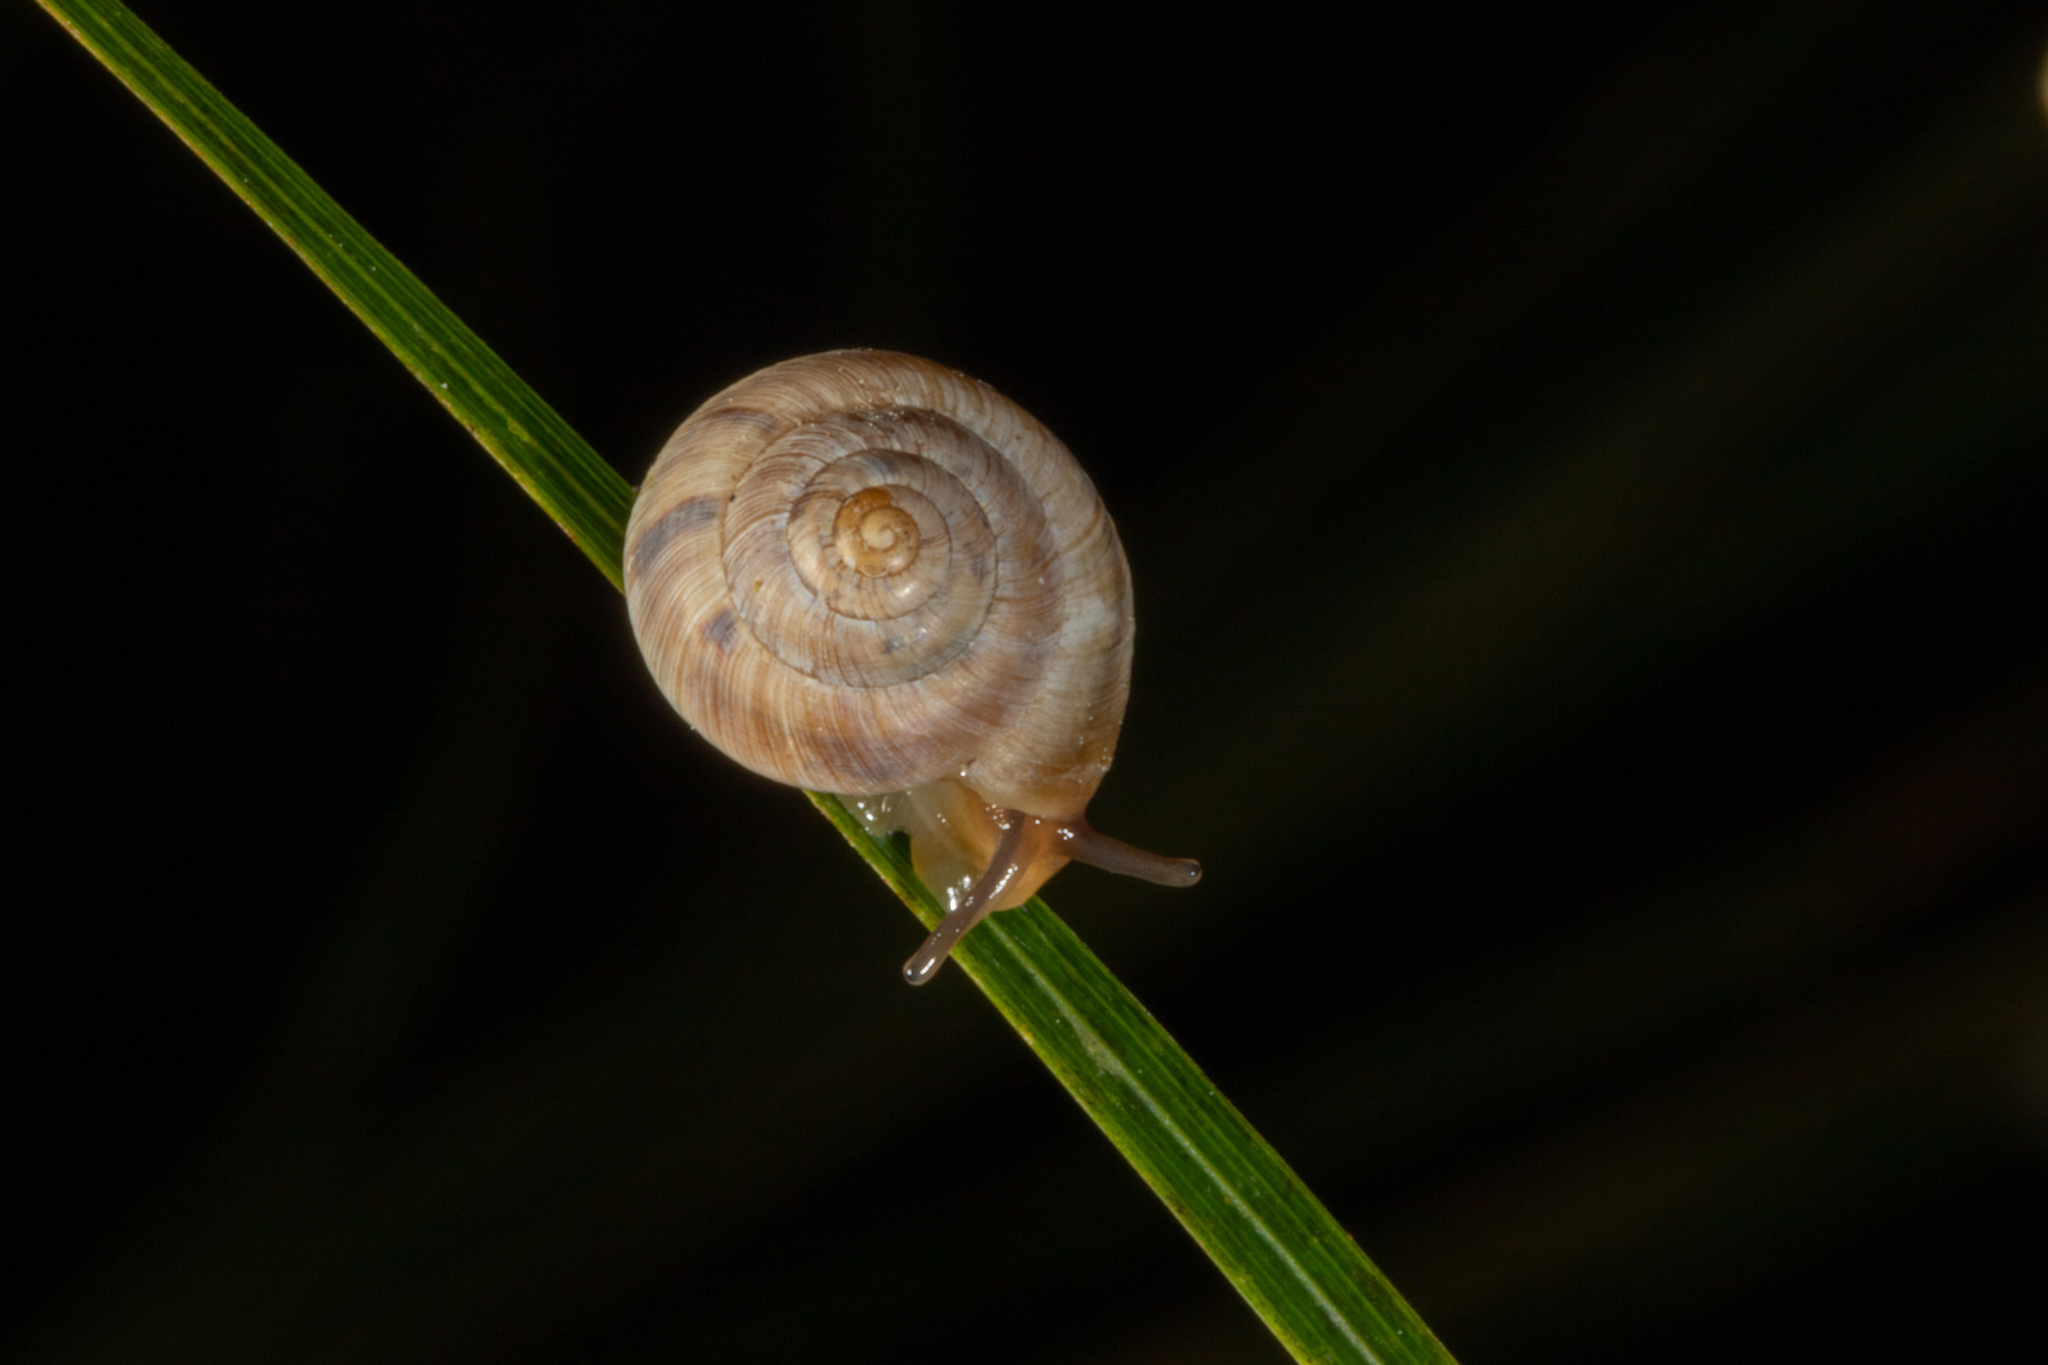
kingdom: Animalia
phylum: Mollusca
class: Gastropoda
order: Stylommatophora
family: Charopidae
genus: Serpho
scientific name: Serpho
